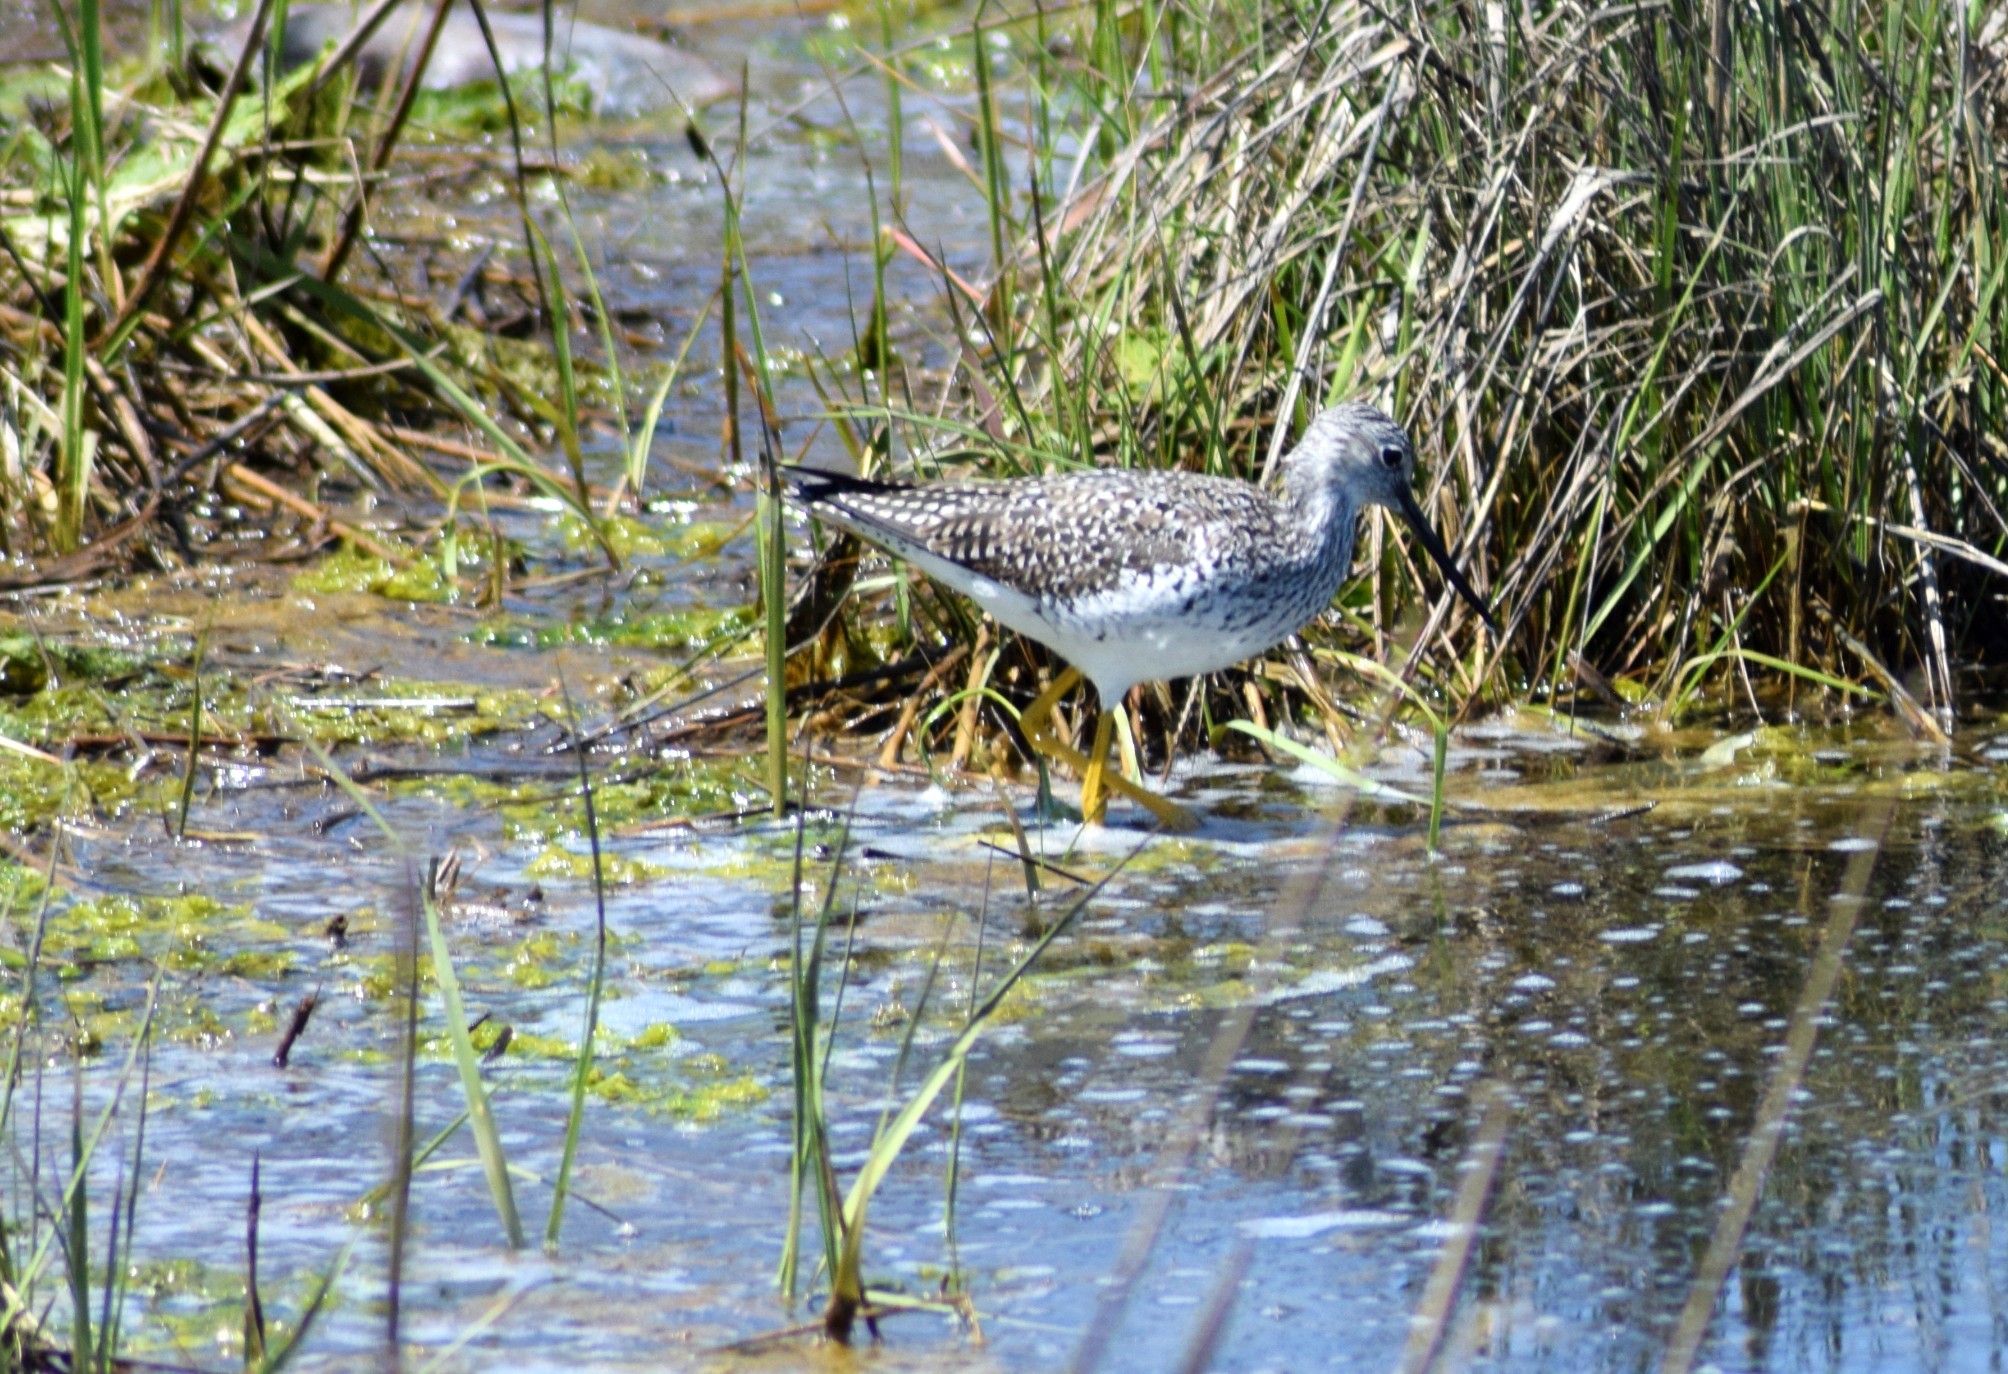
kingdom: Animalia
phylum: Chordata
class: Aves
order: Charadriiformes
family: Scolopacidae
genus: Tringa
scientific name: Tringa melanoleuca
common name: Greater yellowlegs
